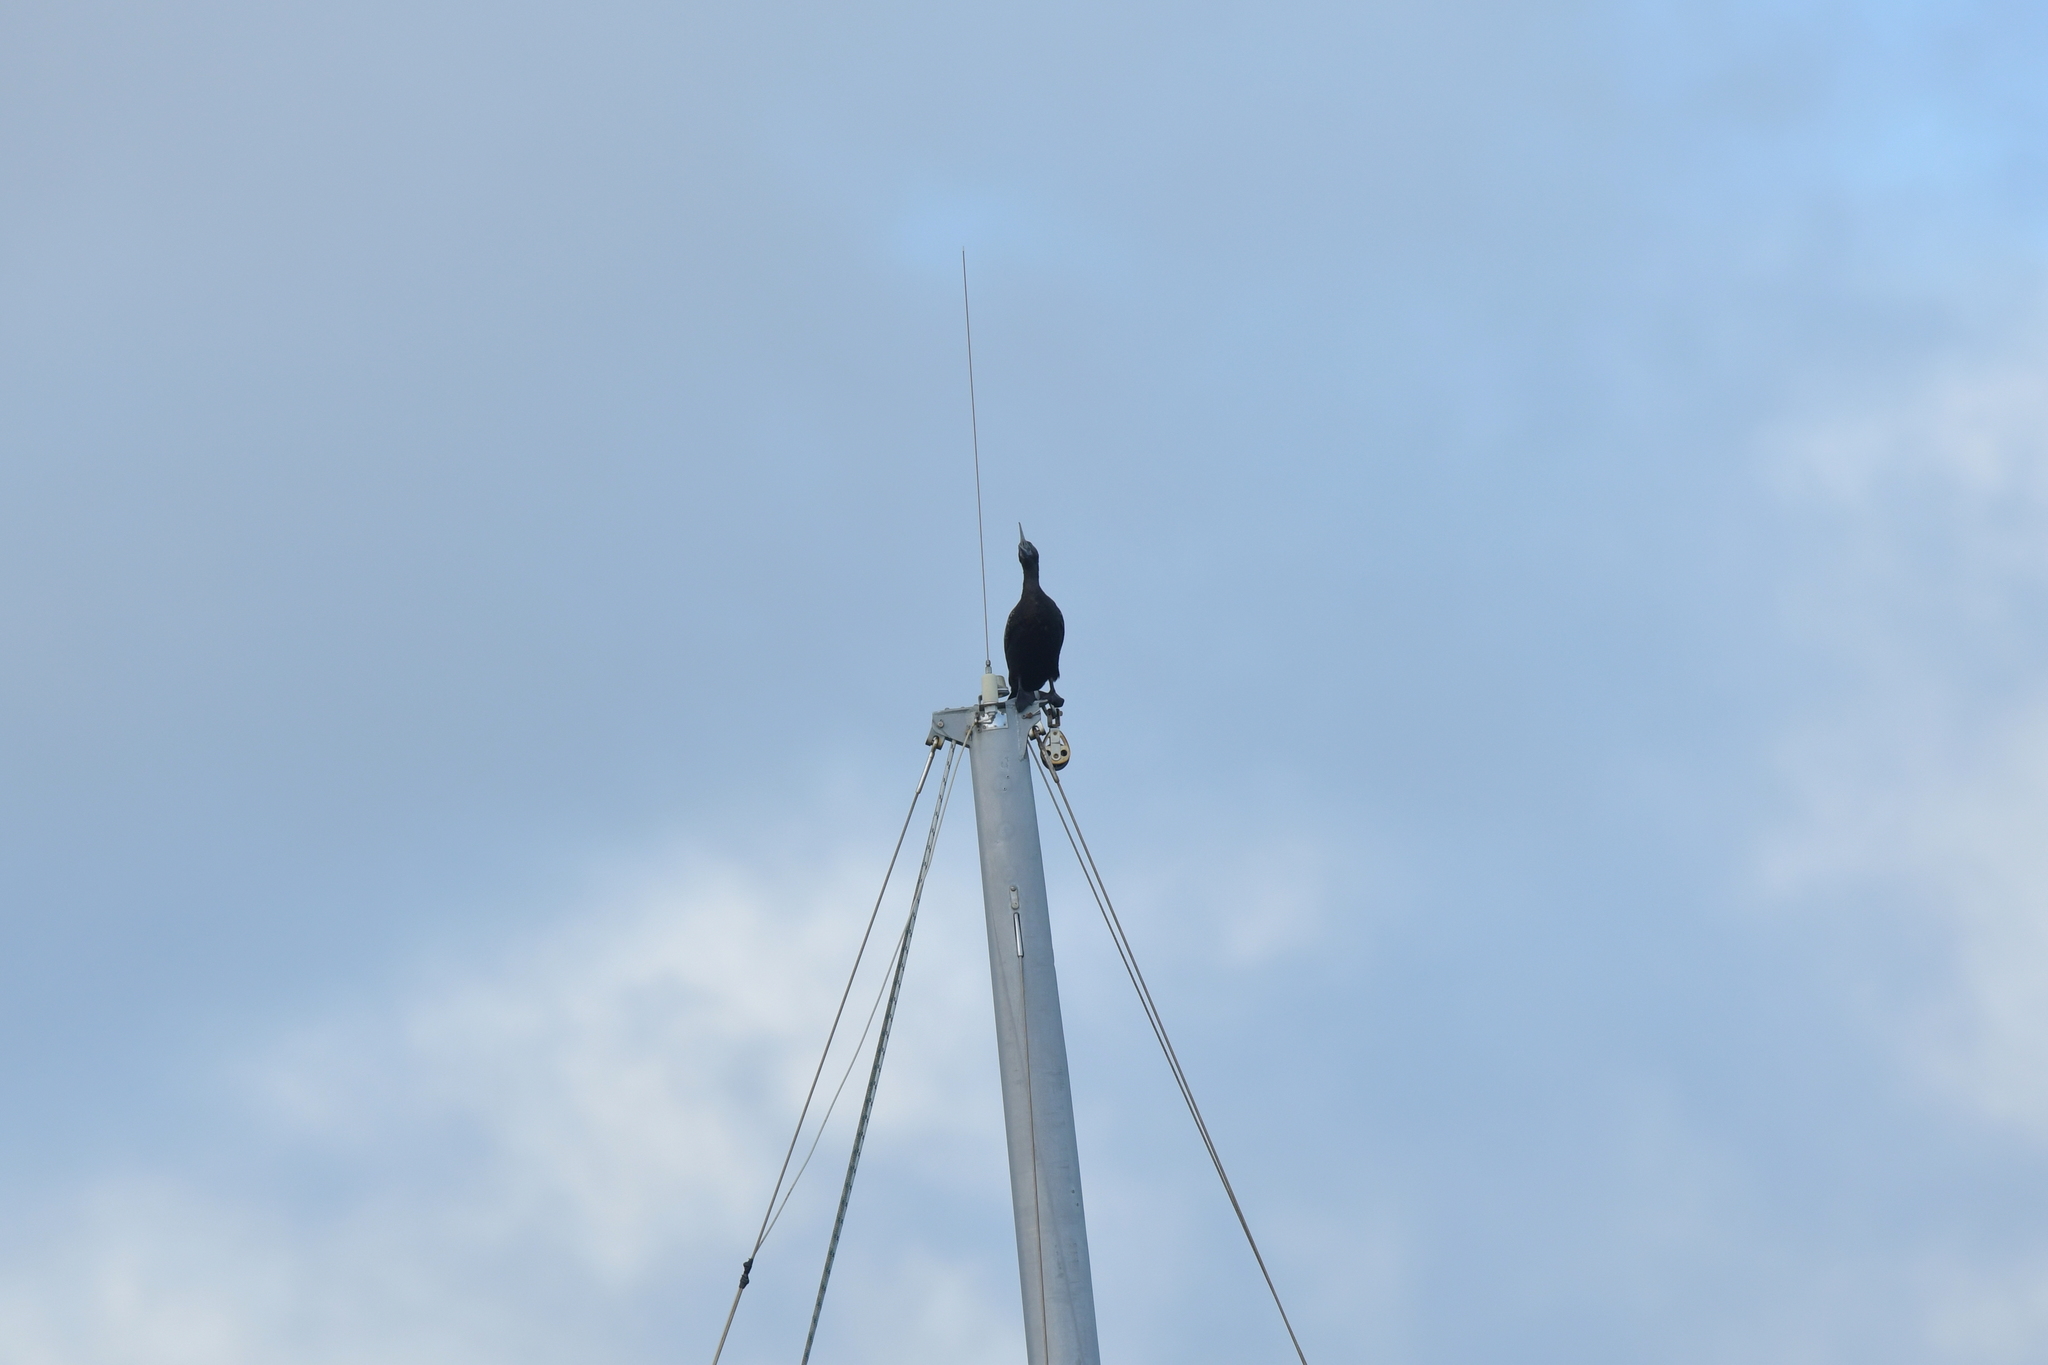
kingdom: Animalia
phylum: Chordata
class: Aves
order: Suliformes
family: Phalacrocoracidae
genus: Phalacrocorax
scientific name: Phalacrocorax sulcirostris
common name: Little black cormorant
